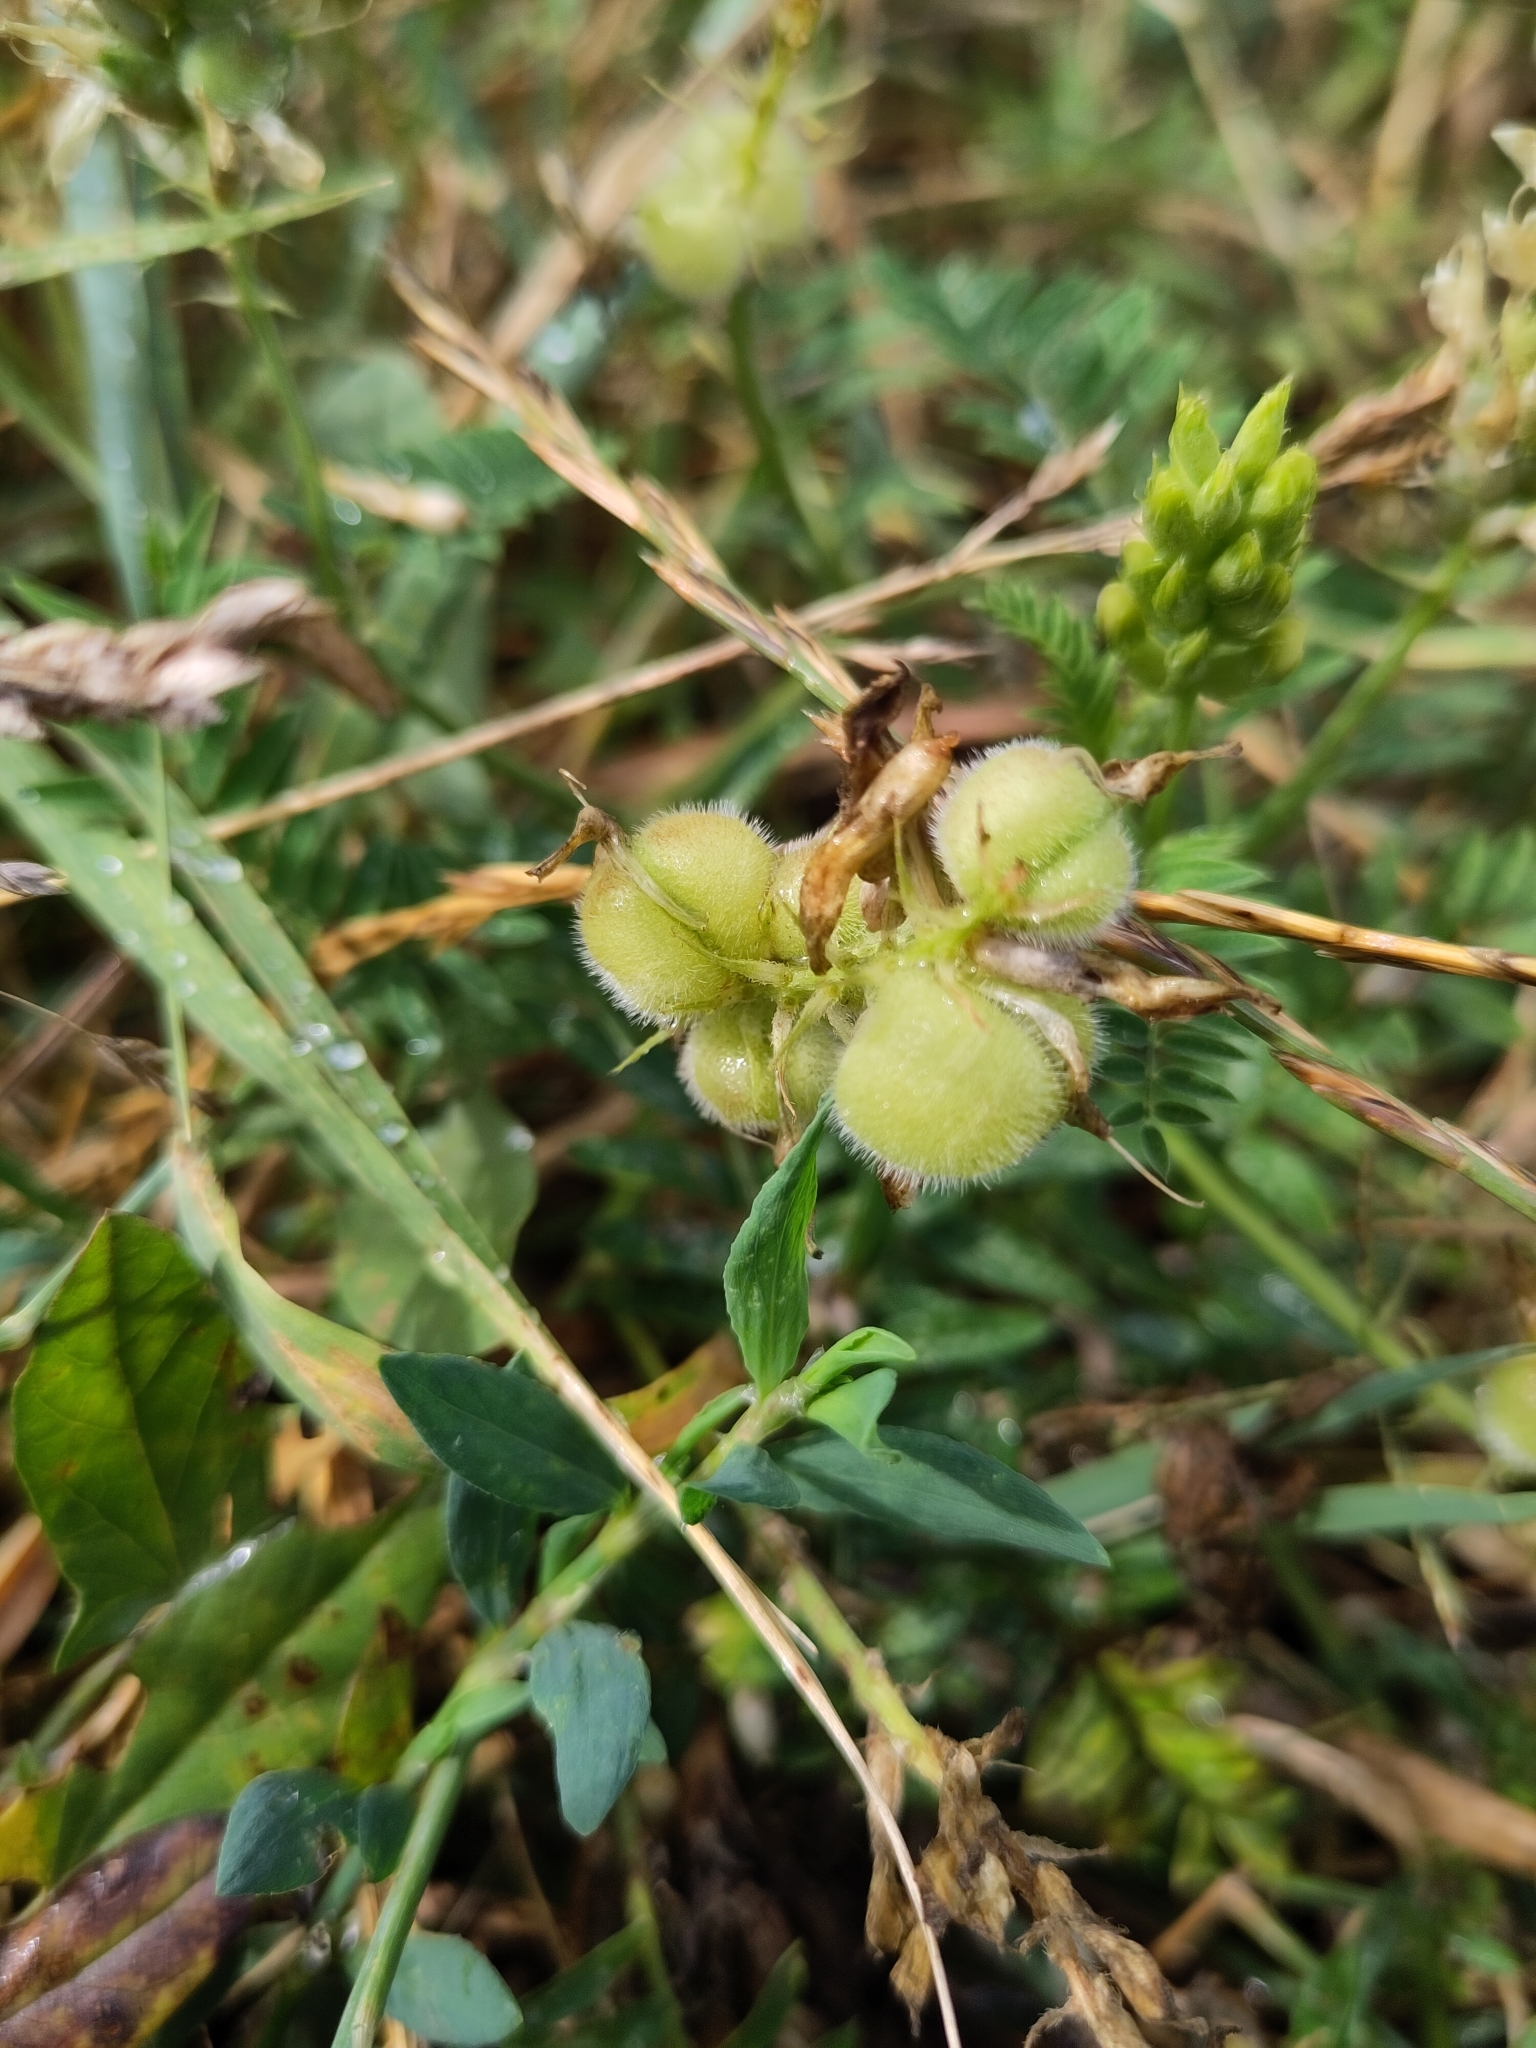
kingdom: Plantae
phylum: Tracheophyta
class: Magnoliopsida
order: Fabales
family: Fabaceae
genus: Astragalus
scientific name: Astragalus cicer
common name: Chick-pea milk-vetch
